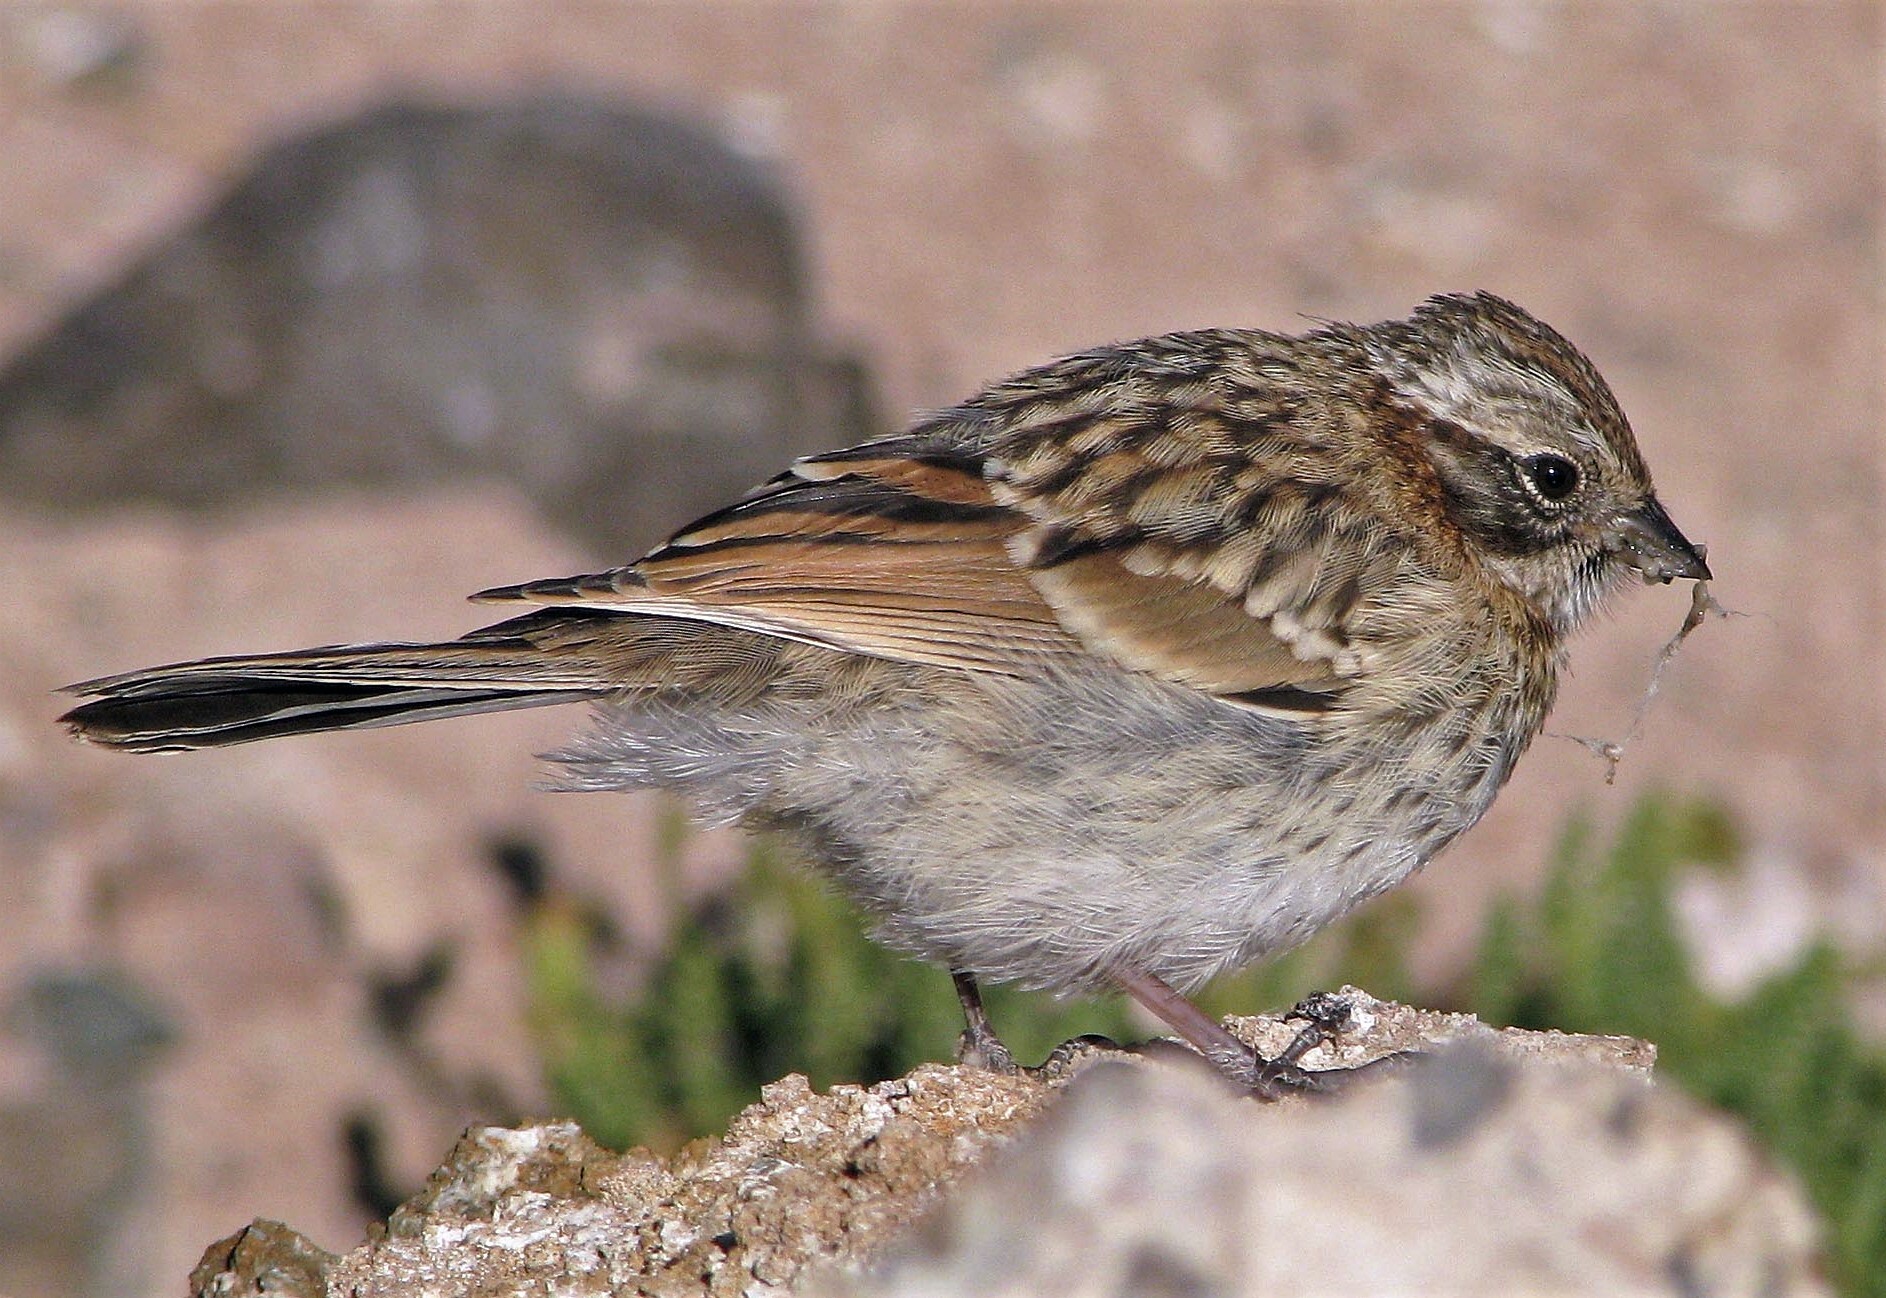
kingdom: Animalia
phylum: Chordata
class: Aves
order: Passeriformes
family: Passerellidae
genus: Zonotrichia
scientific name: Zonotrichia capensis
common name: Rufous-collared sparrow
